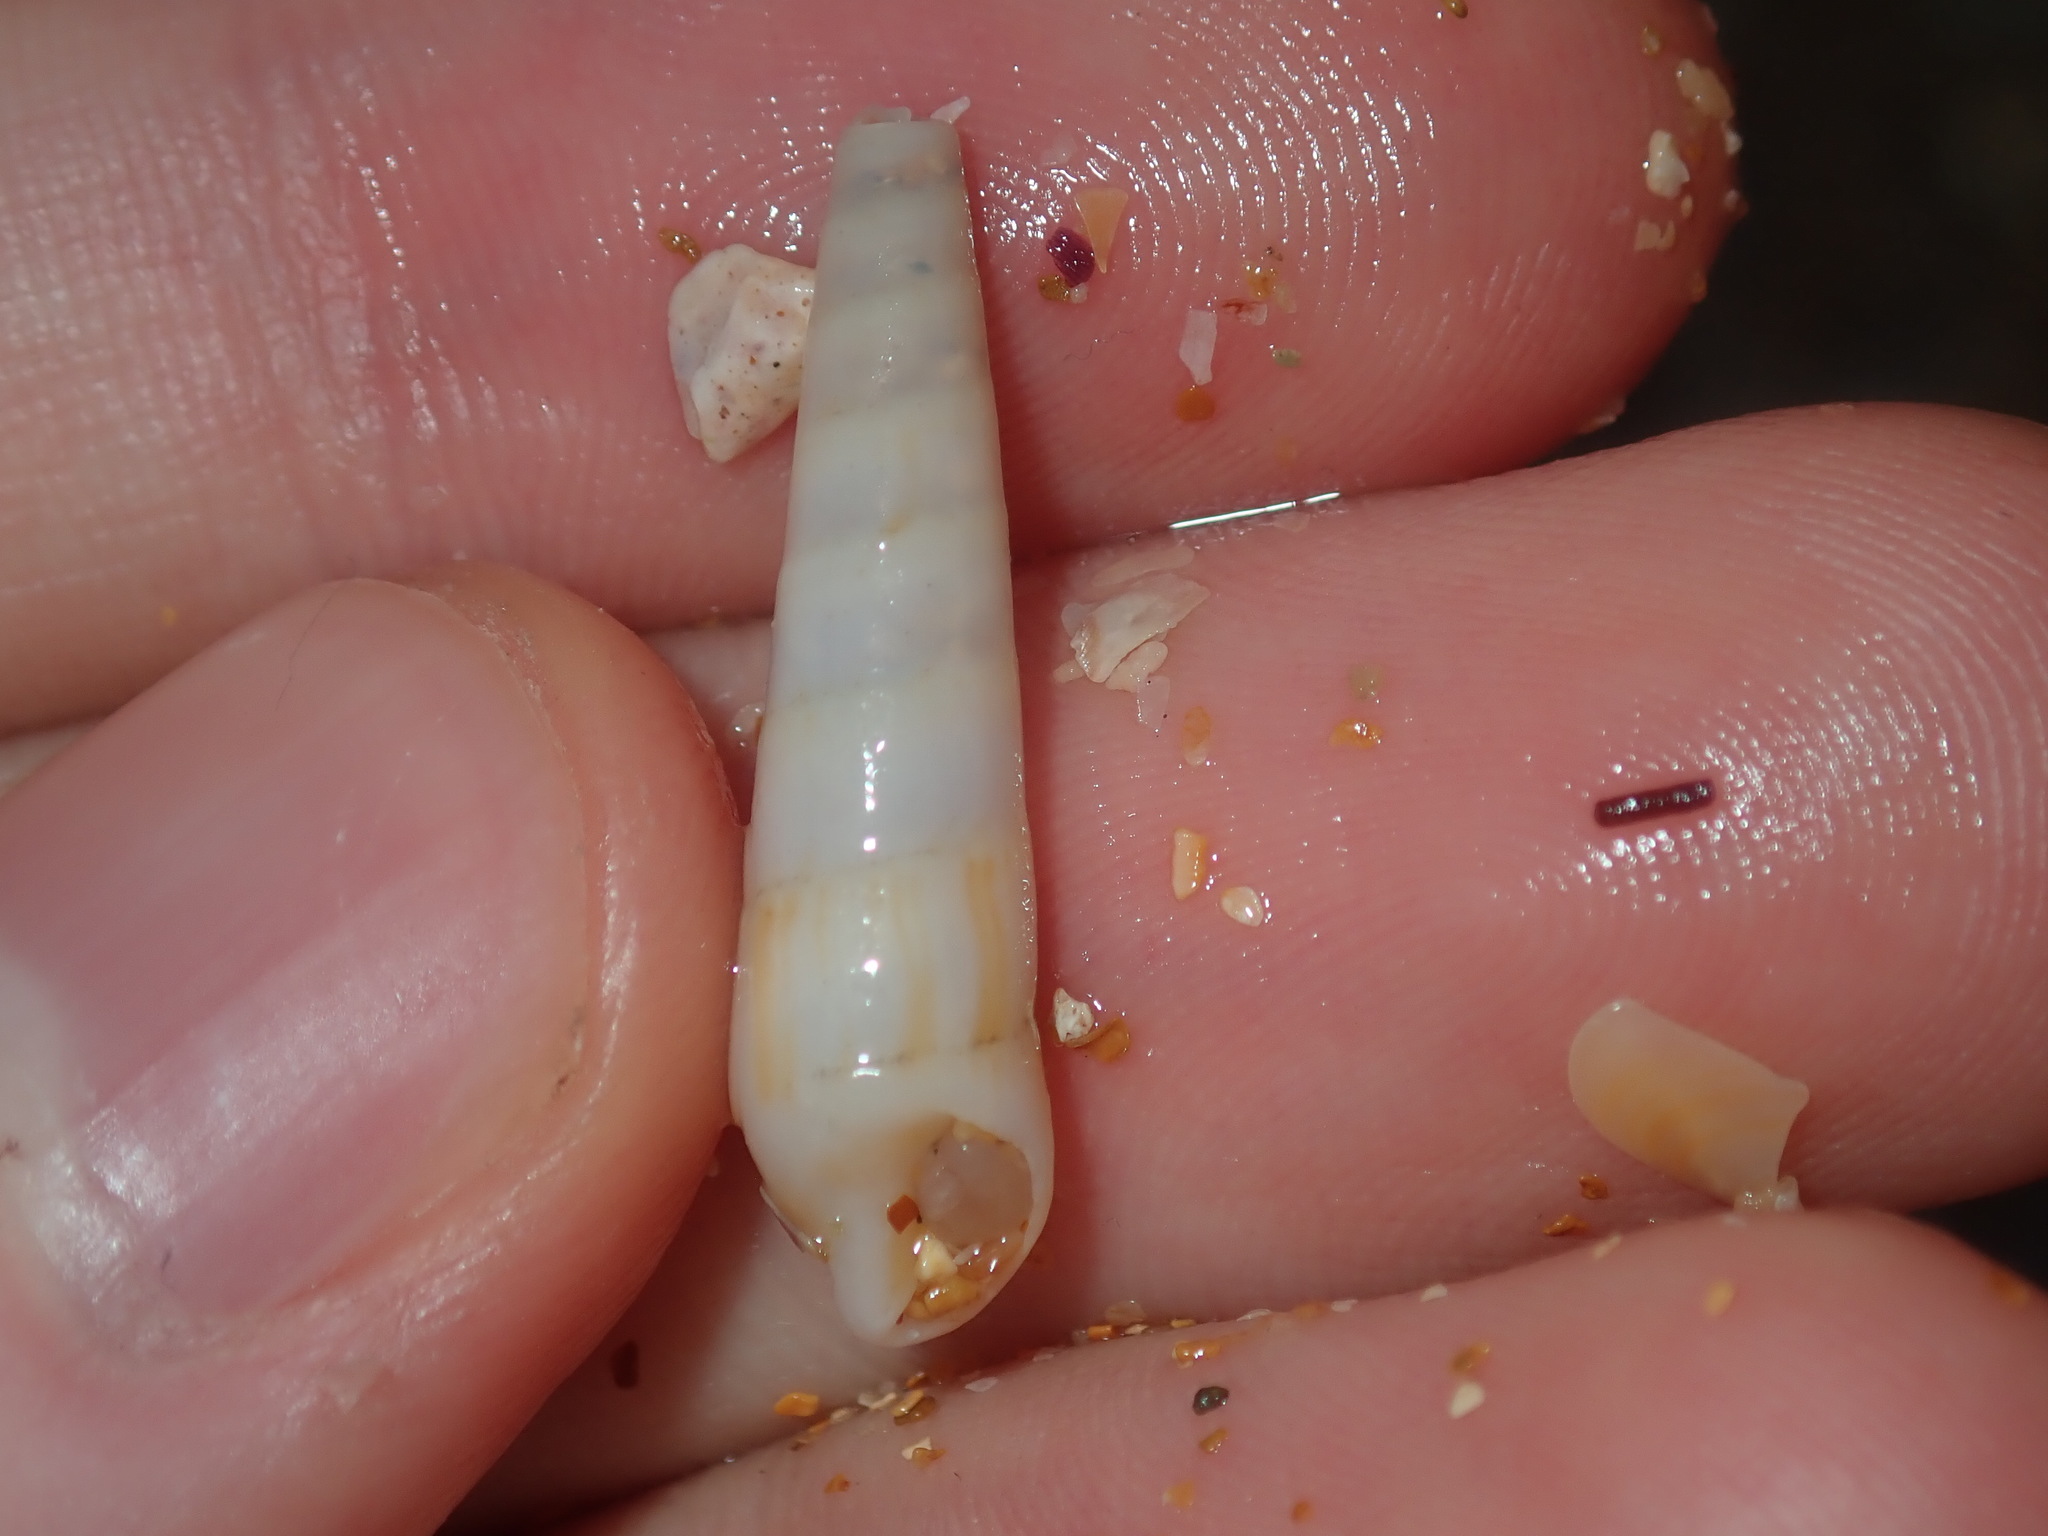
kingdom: Animalia
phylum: Mollusca
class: Gastropoda
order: Neogastropoda
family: Terebridae
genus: Profunditerebra
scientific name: Profunditerebra brazieri
